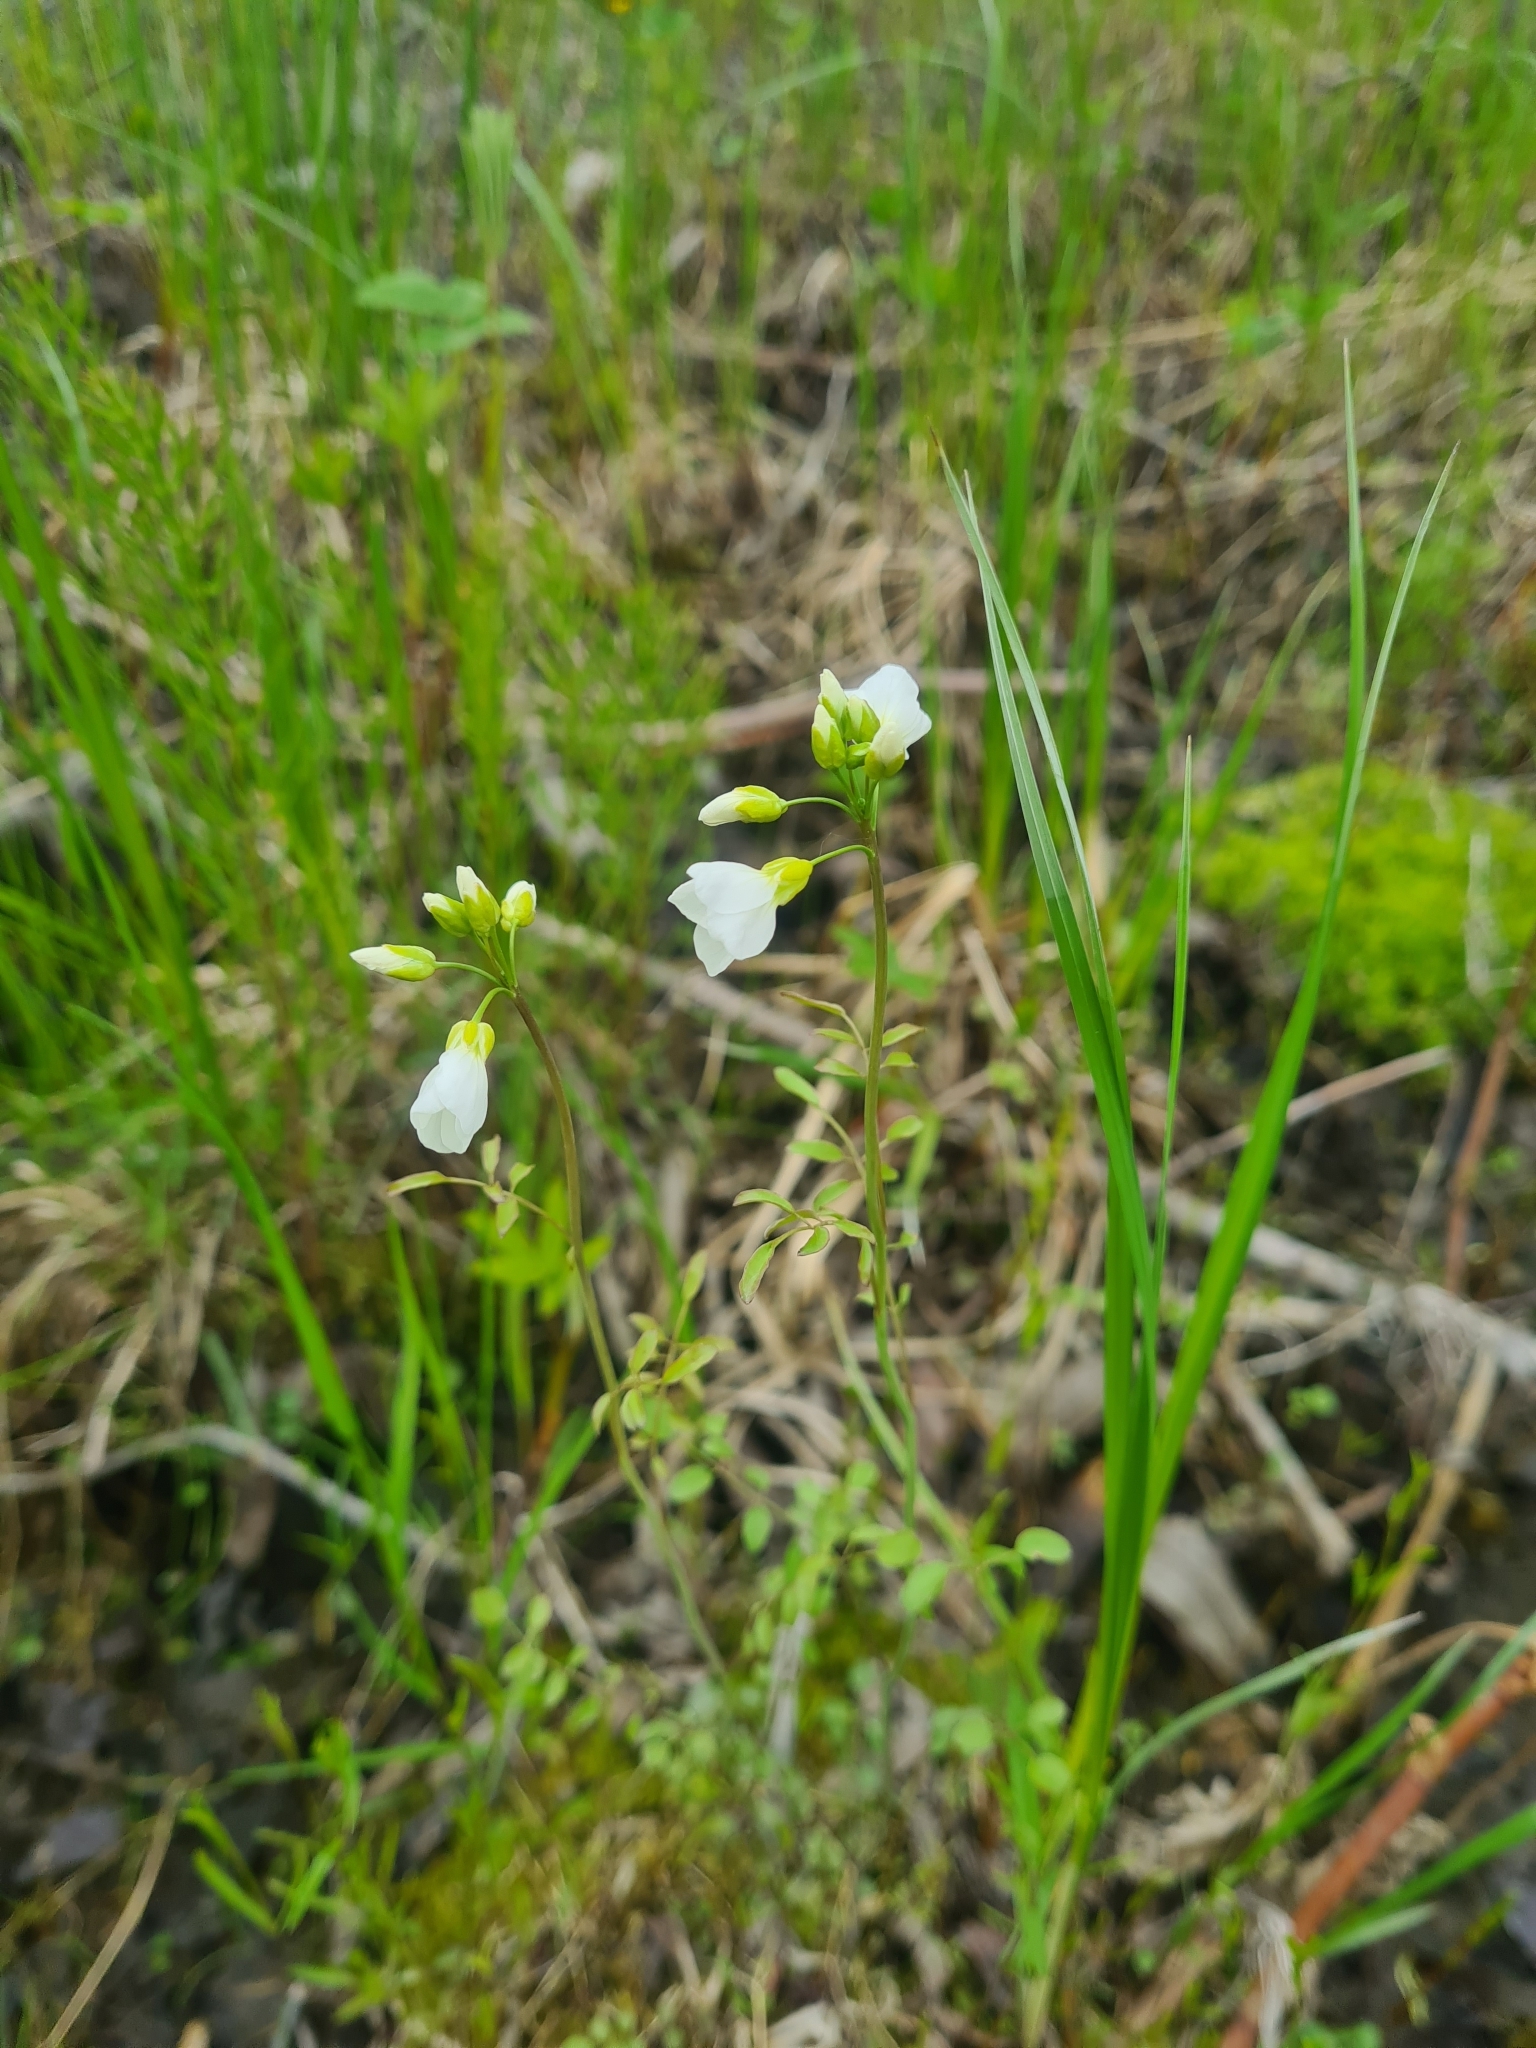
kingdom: Plantae
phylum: Tracheophyta
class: Magnoliopsida
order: Brassicales
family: Brassicaceae
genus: Cardamine
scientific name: Cardamine dentata
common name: Toothed bittercress
